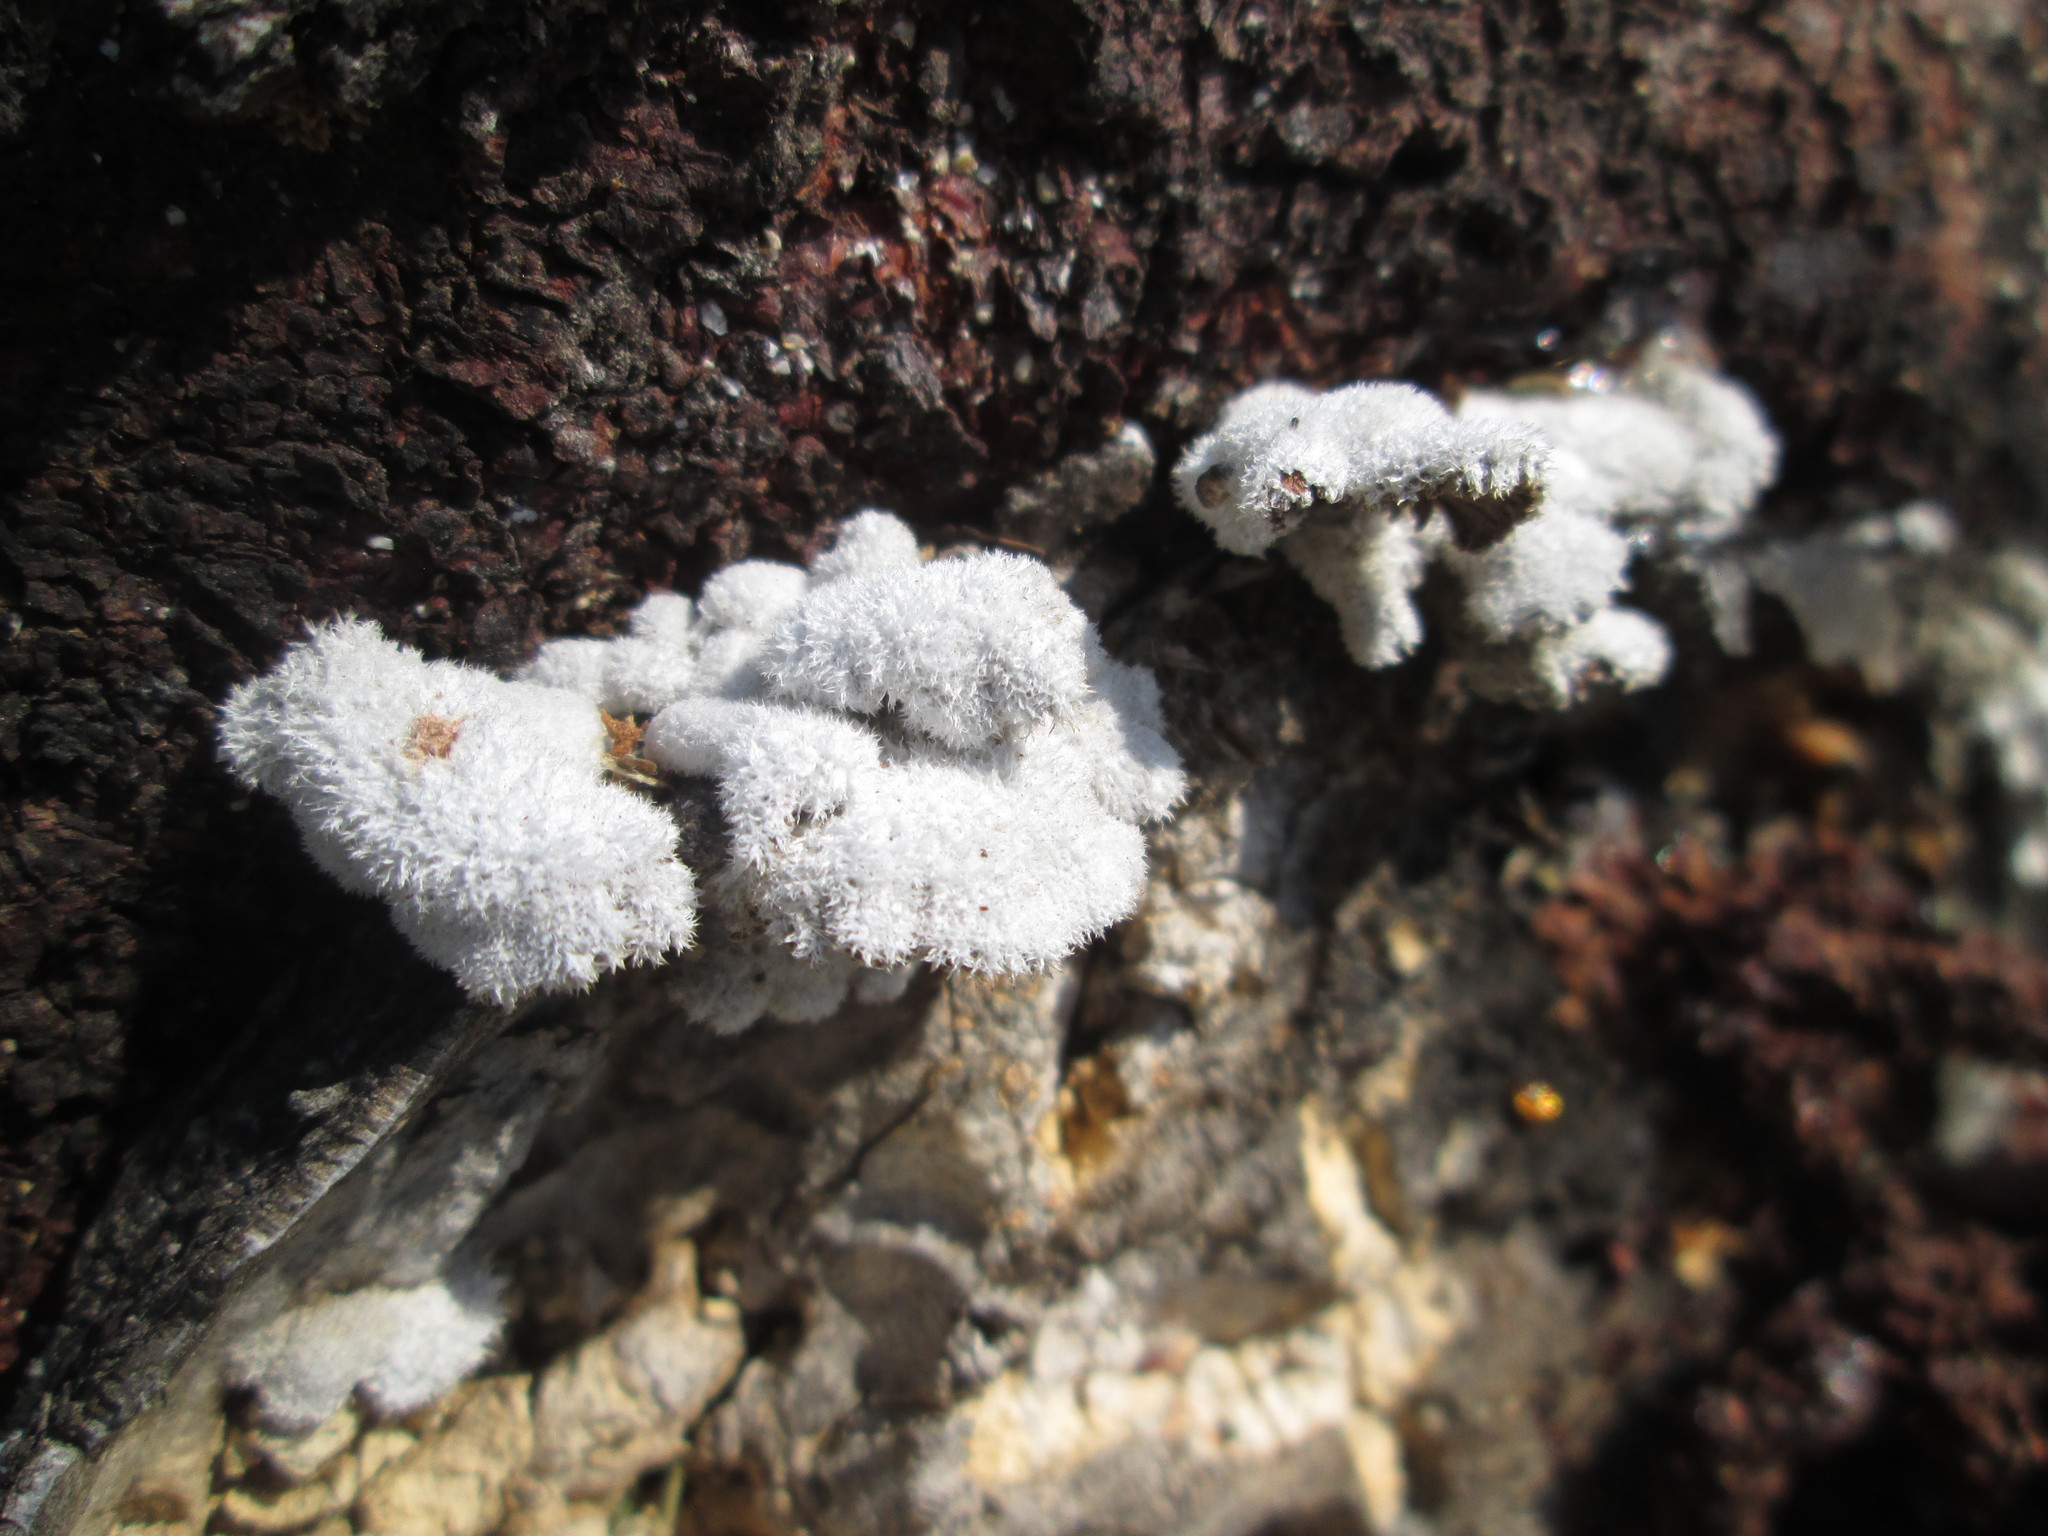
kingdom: Fungi
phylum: Basidiomycota
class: Agaricomycetes
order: Agaricales
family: Schizophyllaceae
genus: Schizophyllum
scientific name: Schizophyllum commune
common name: Common porecrust
